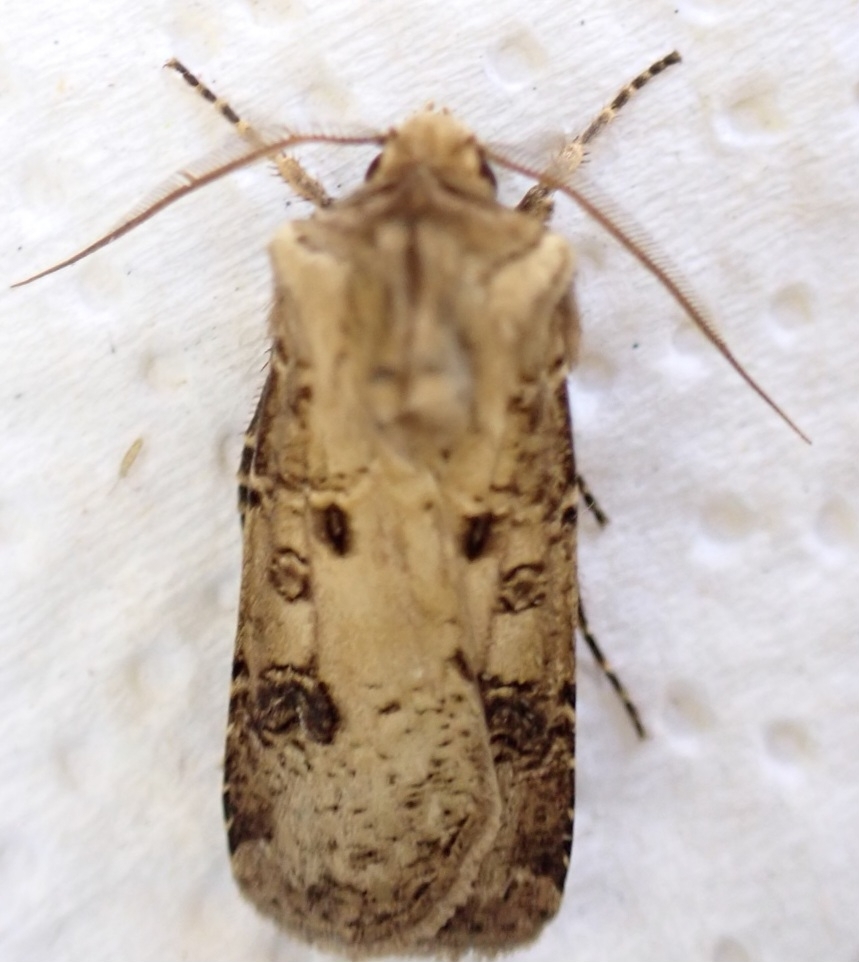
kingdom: Animalia
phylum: Arthropoda
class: Insecta
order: Lepidoptera
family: Noctuidae
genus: Agrotis
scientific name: Agrotis clavis
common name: Heart and club
